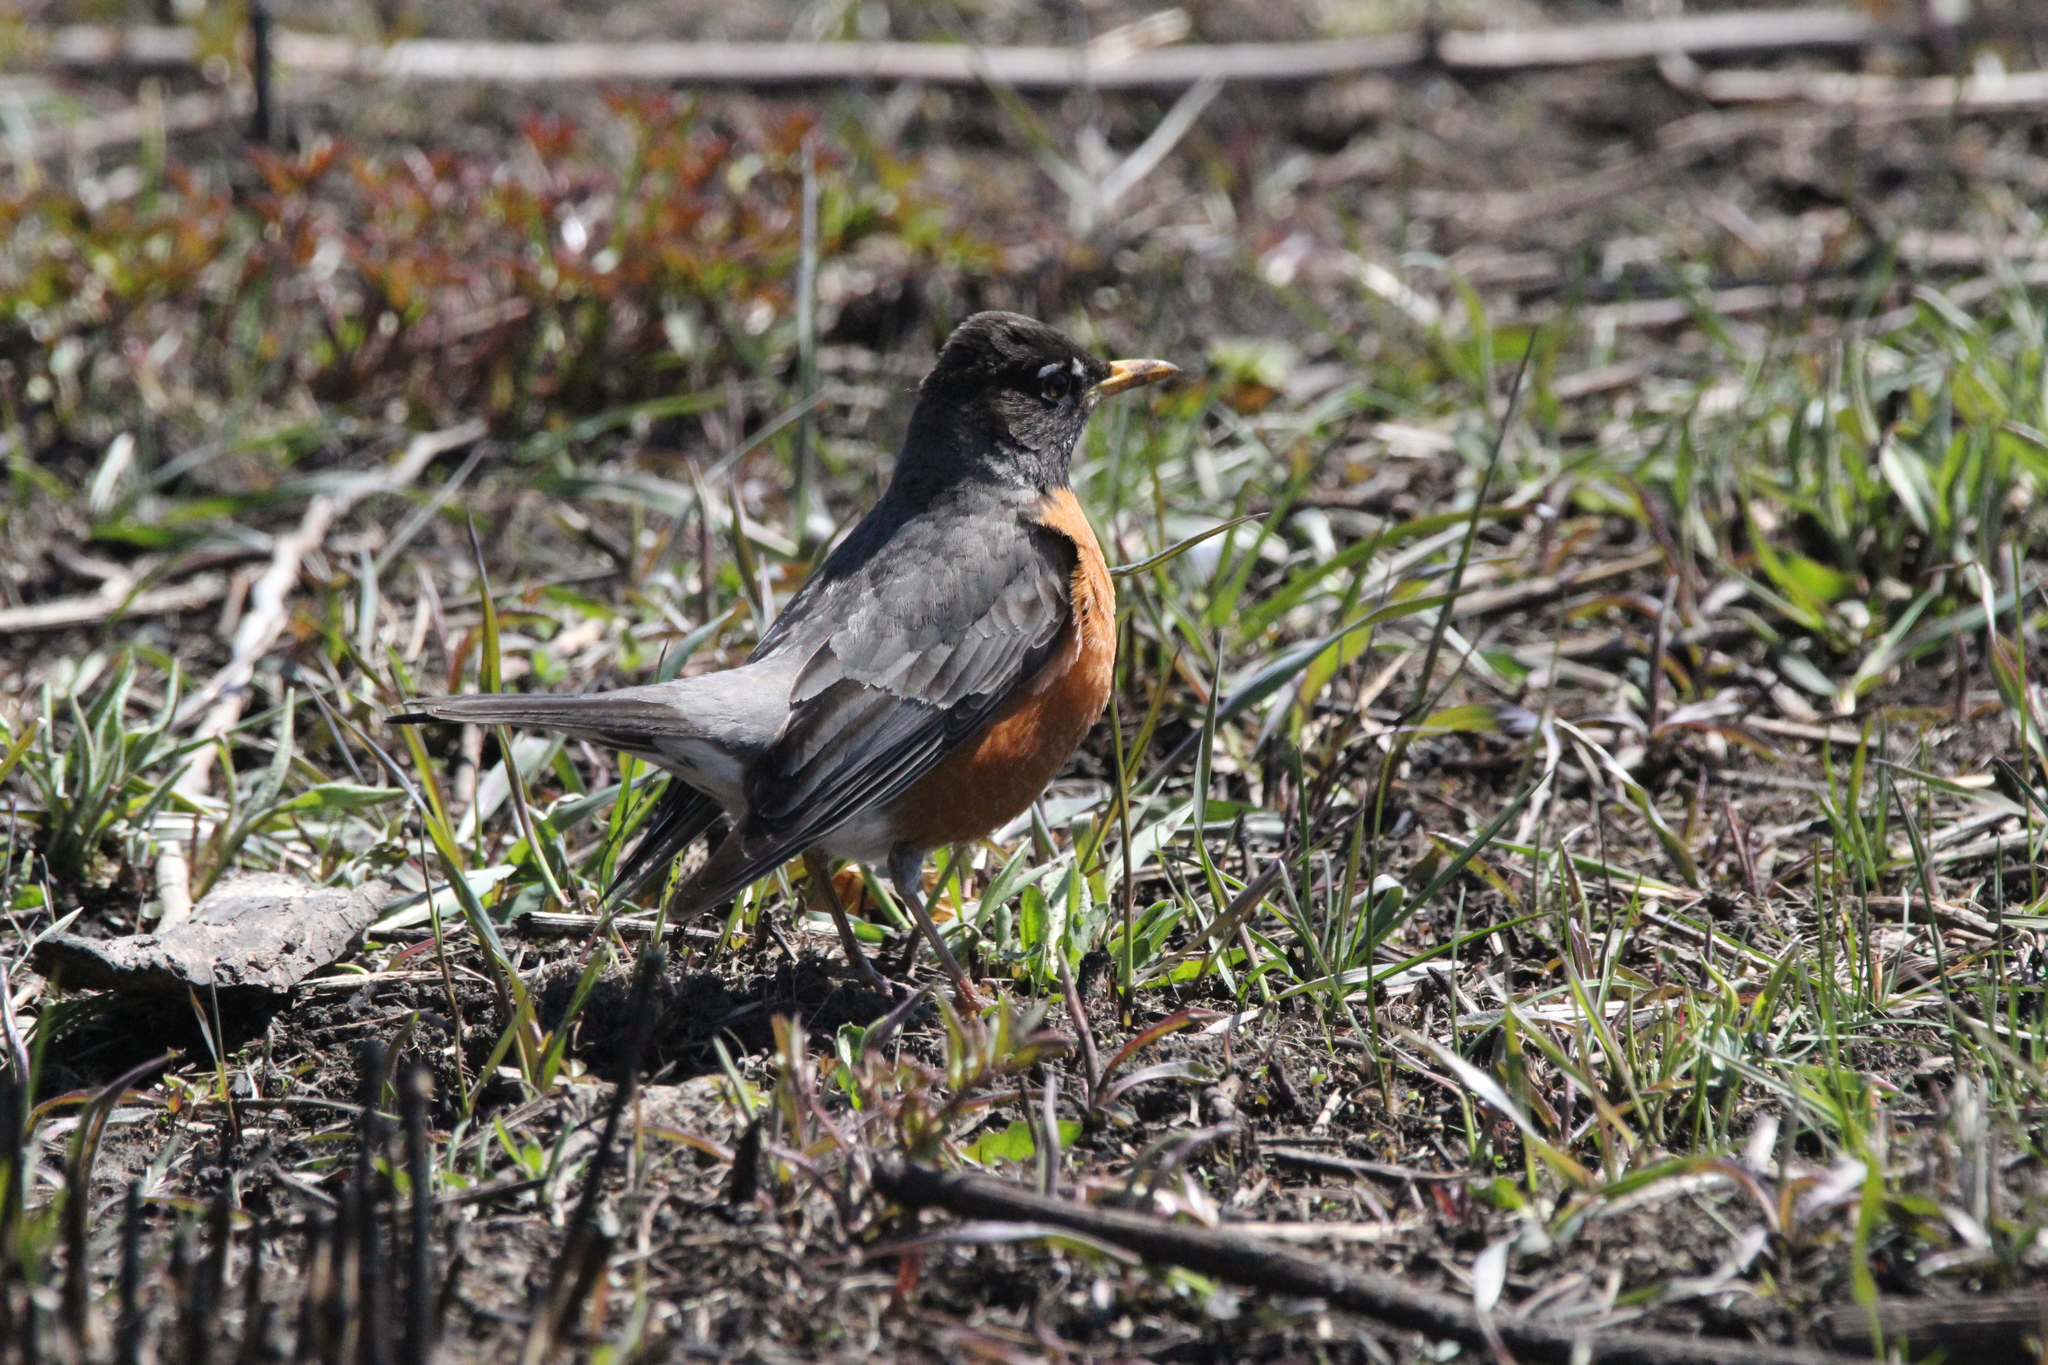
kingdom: Animalia
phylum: Chordata
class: Aves
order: Passeriformes
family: Turdidae
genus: Turdus
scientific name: Turdus migratorius
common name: American robin
